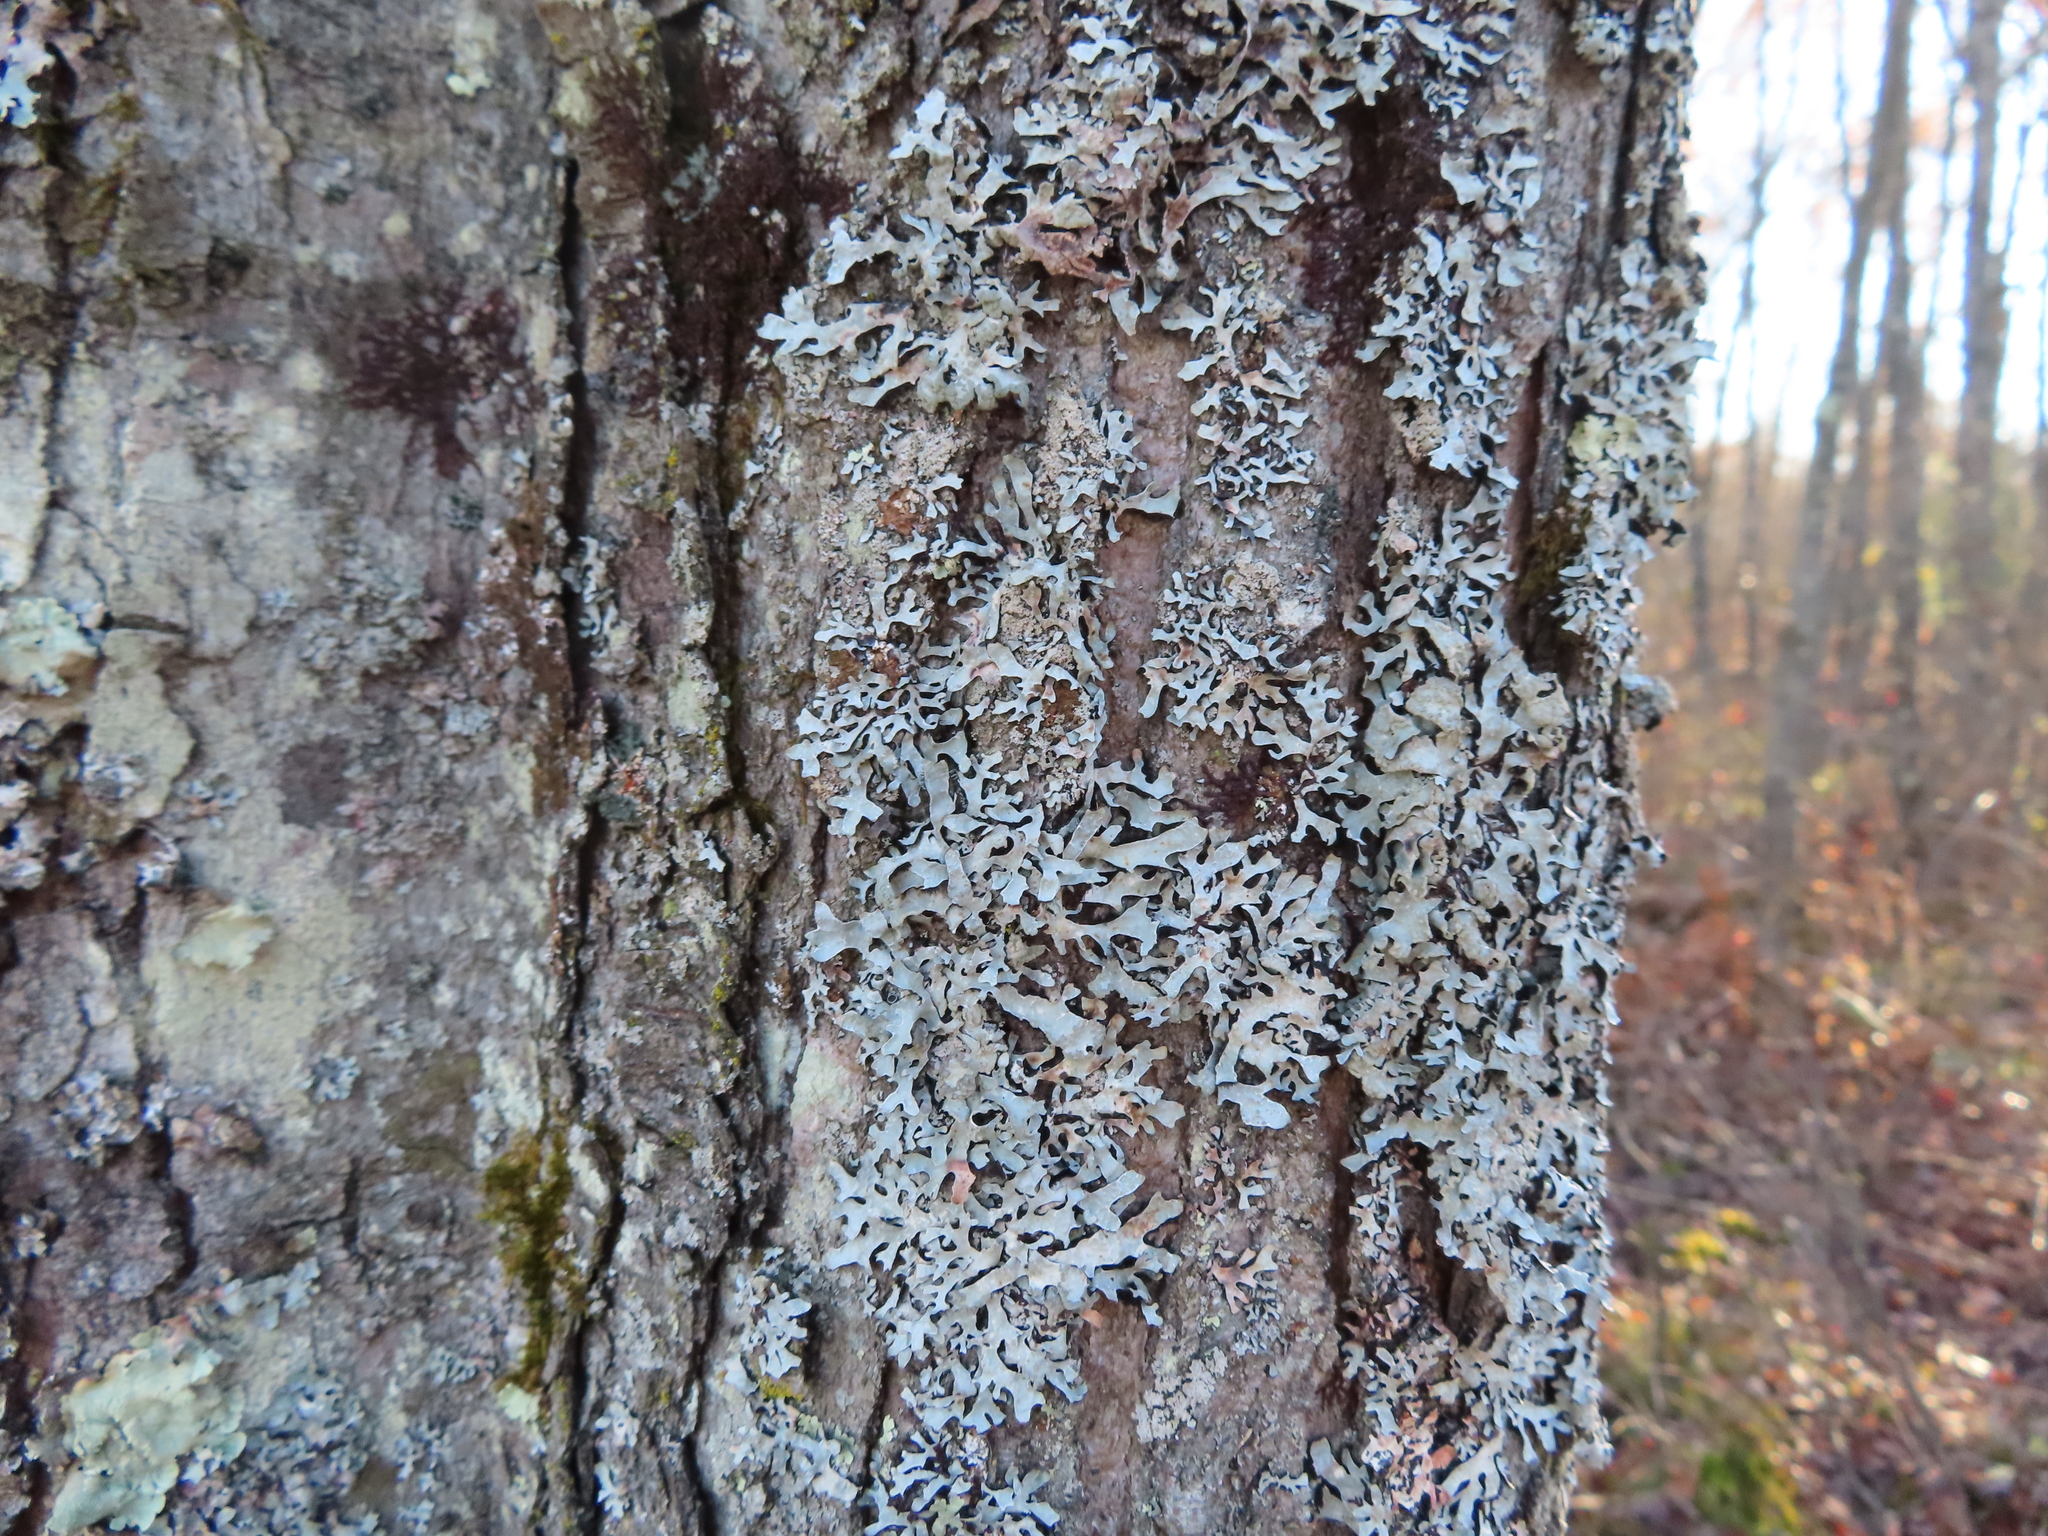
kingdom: Fungi
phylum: Ascomycota
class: Lecanoromycetes
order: Lecanorales
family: Parmeliaceae
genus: Parmelia
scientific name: Parmelia sulcata
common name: Netted shield lichen
